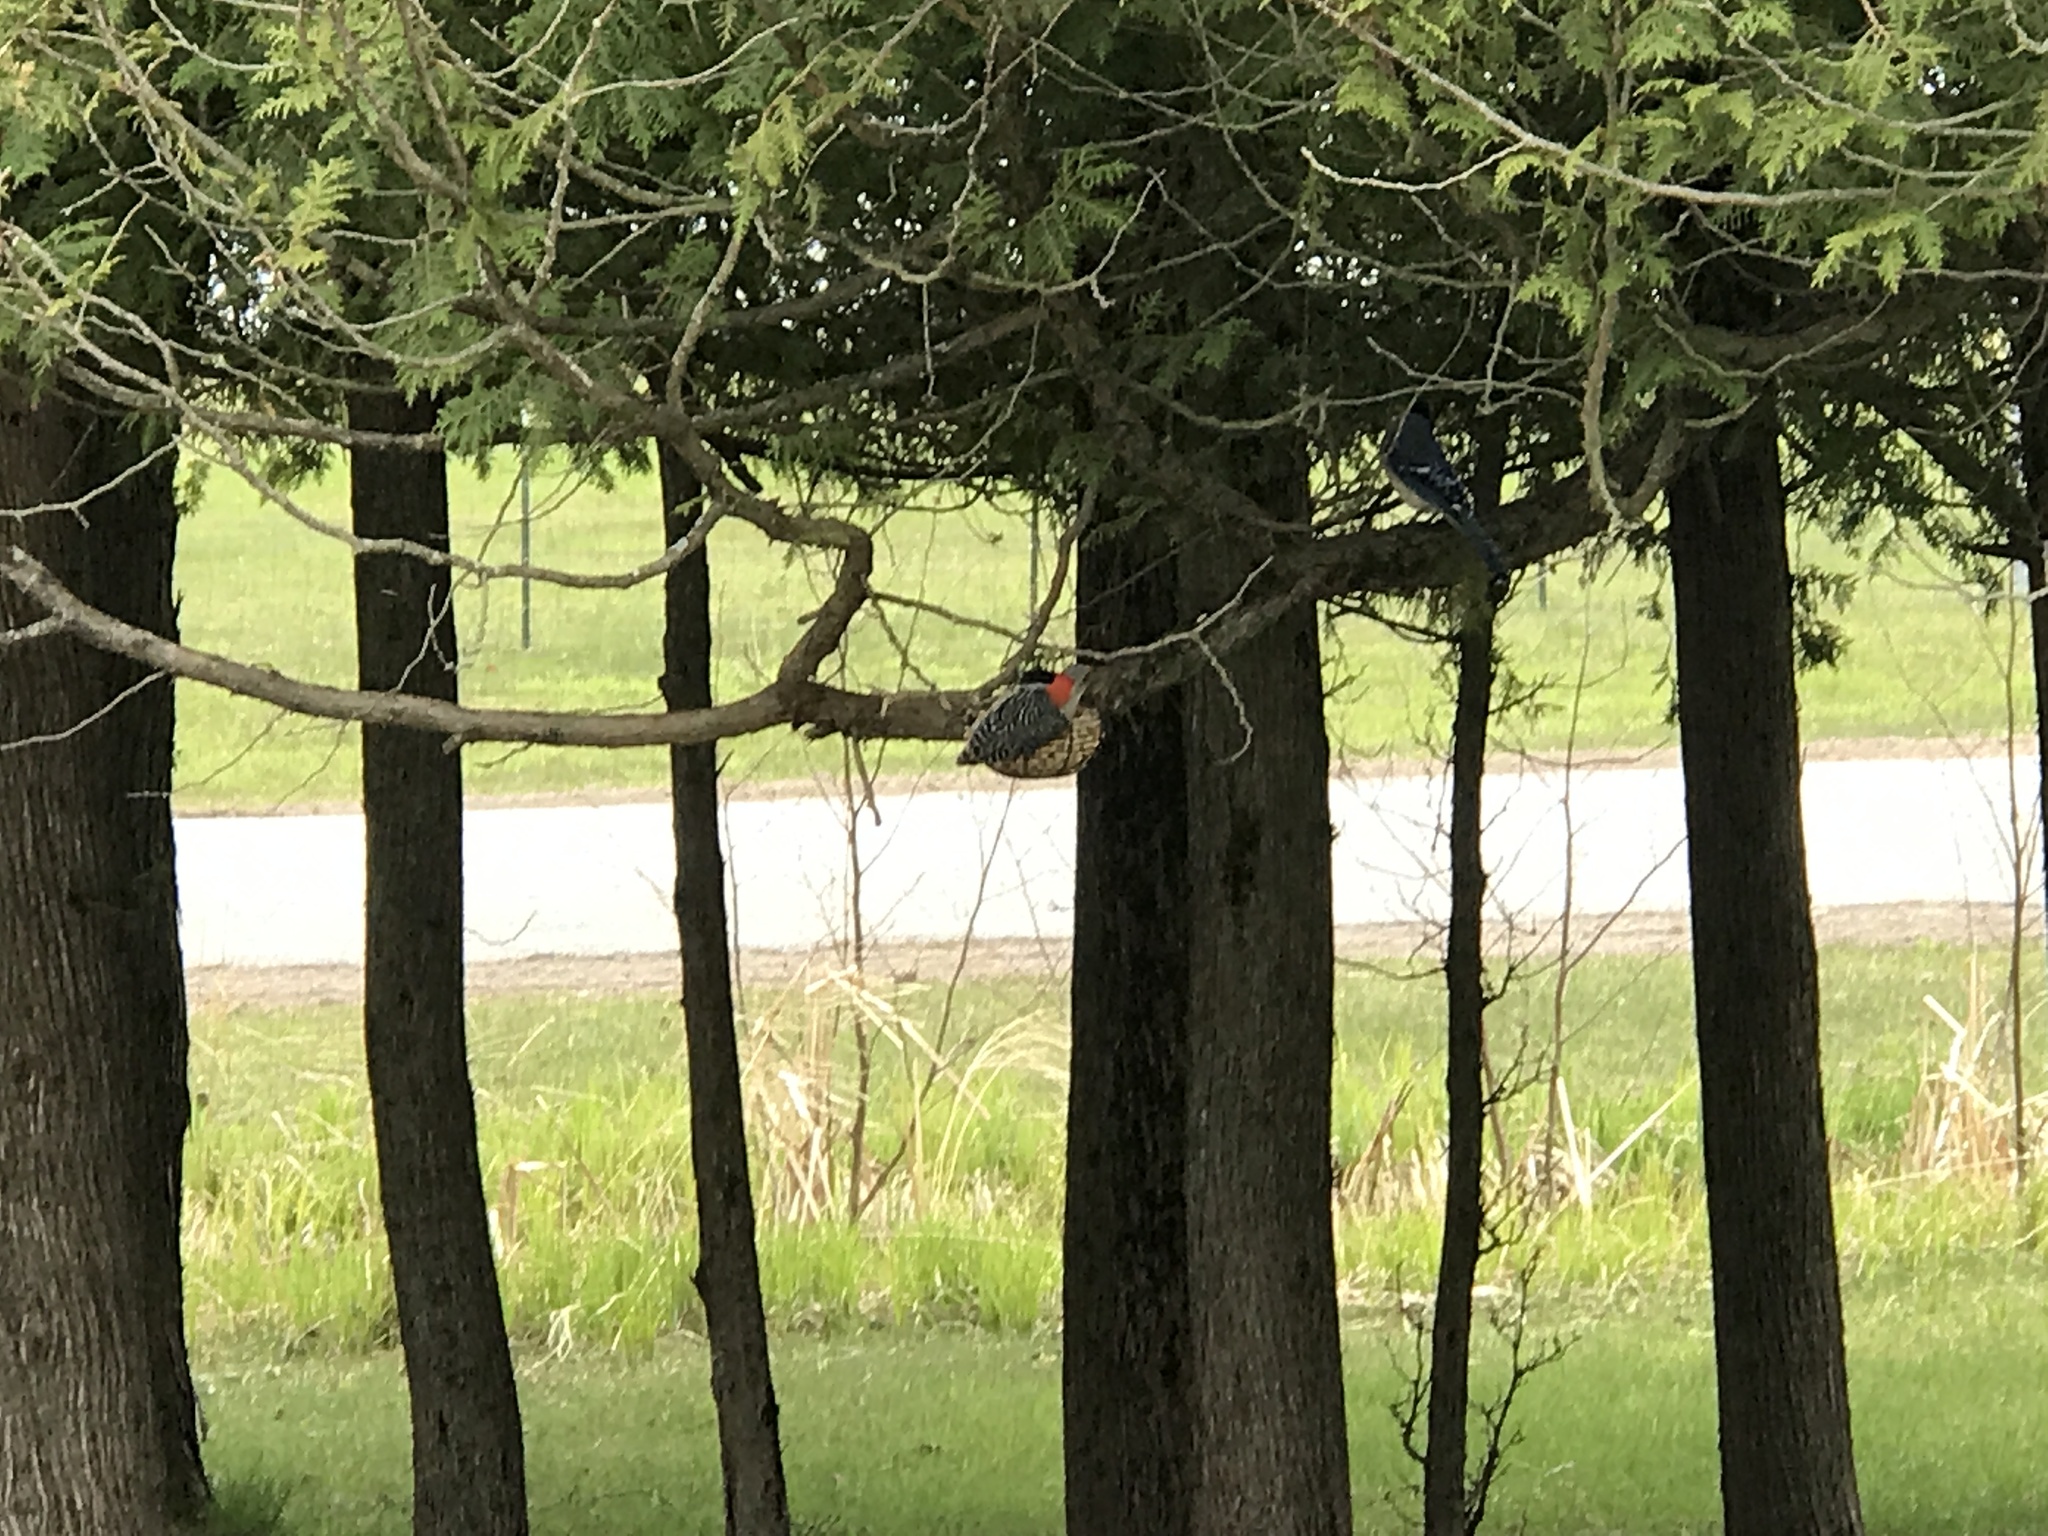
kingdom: Animalia
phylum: Chordata
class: Aves
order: Piciformes
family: Picidae
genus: Melanerpes
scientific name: Melanerpes carolinus
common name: Red-bellied woodpecker
